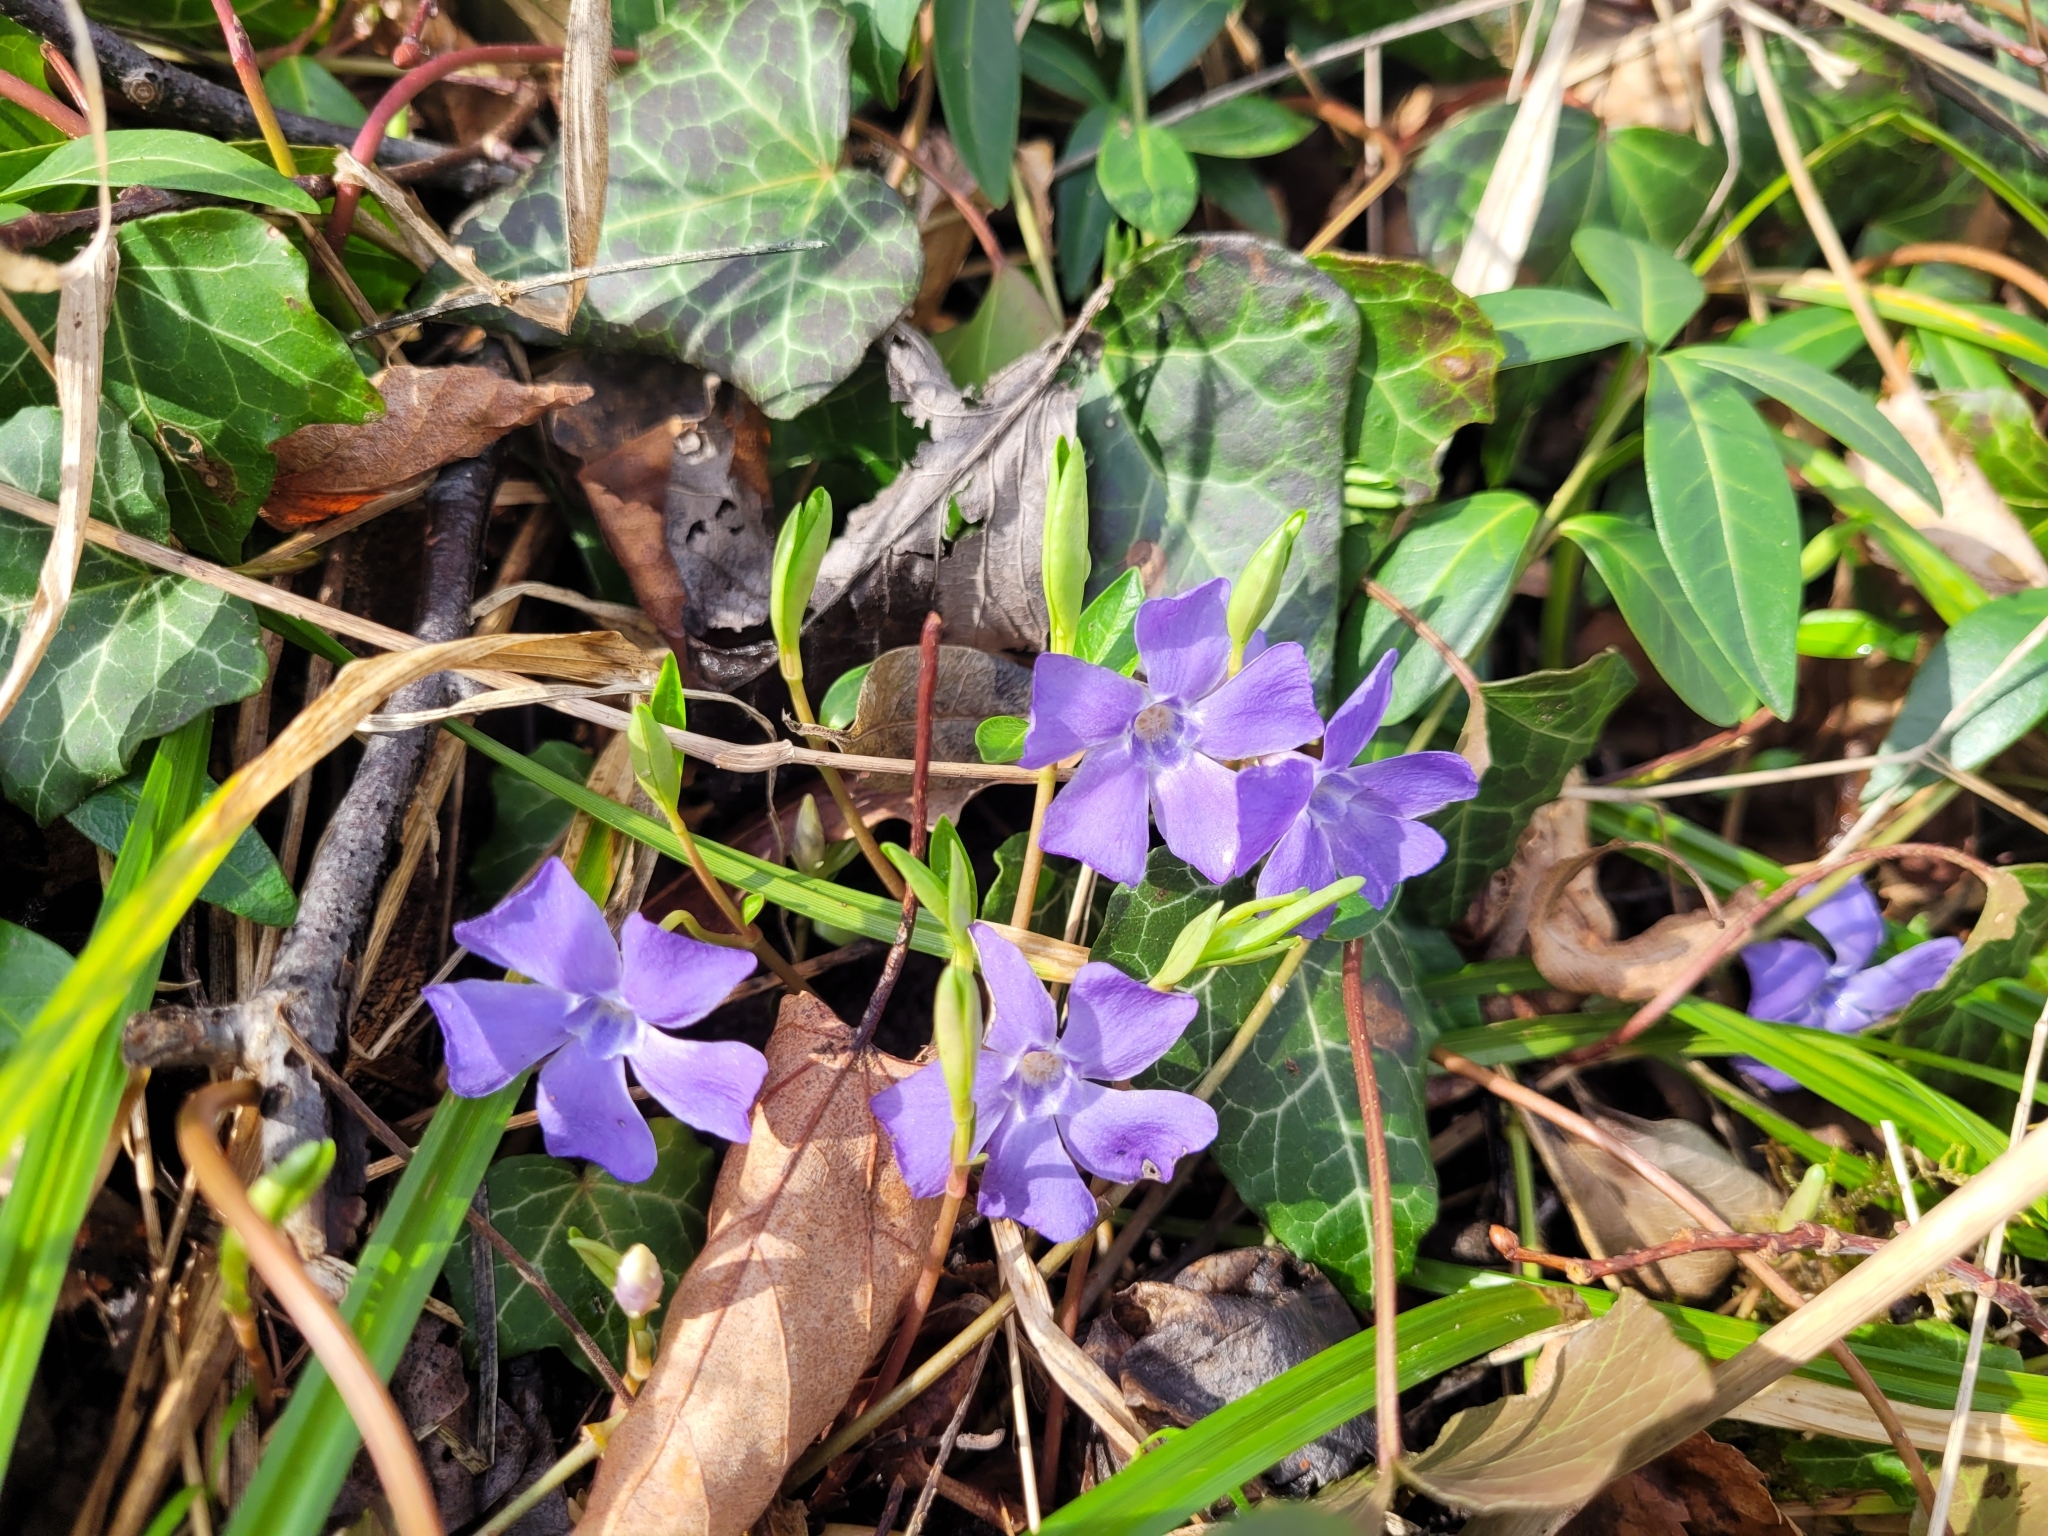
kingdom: Plantae
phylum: Tracheophyta
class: Magnoliopsida
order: Gentianales
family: Apocynaceae
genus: Vinca
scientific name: Vinca minor
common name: Lesser periwinkle
